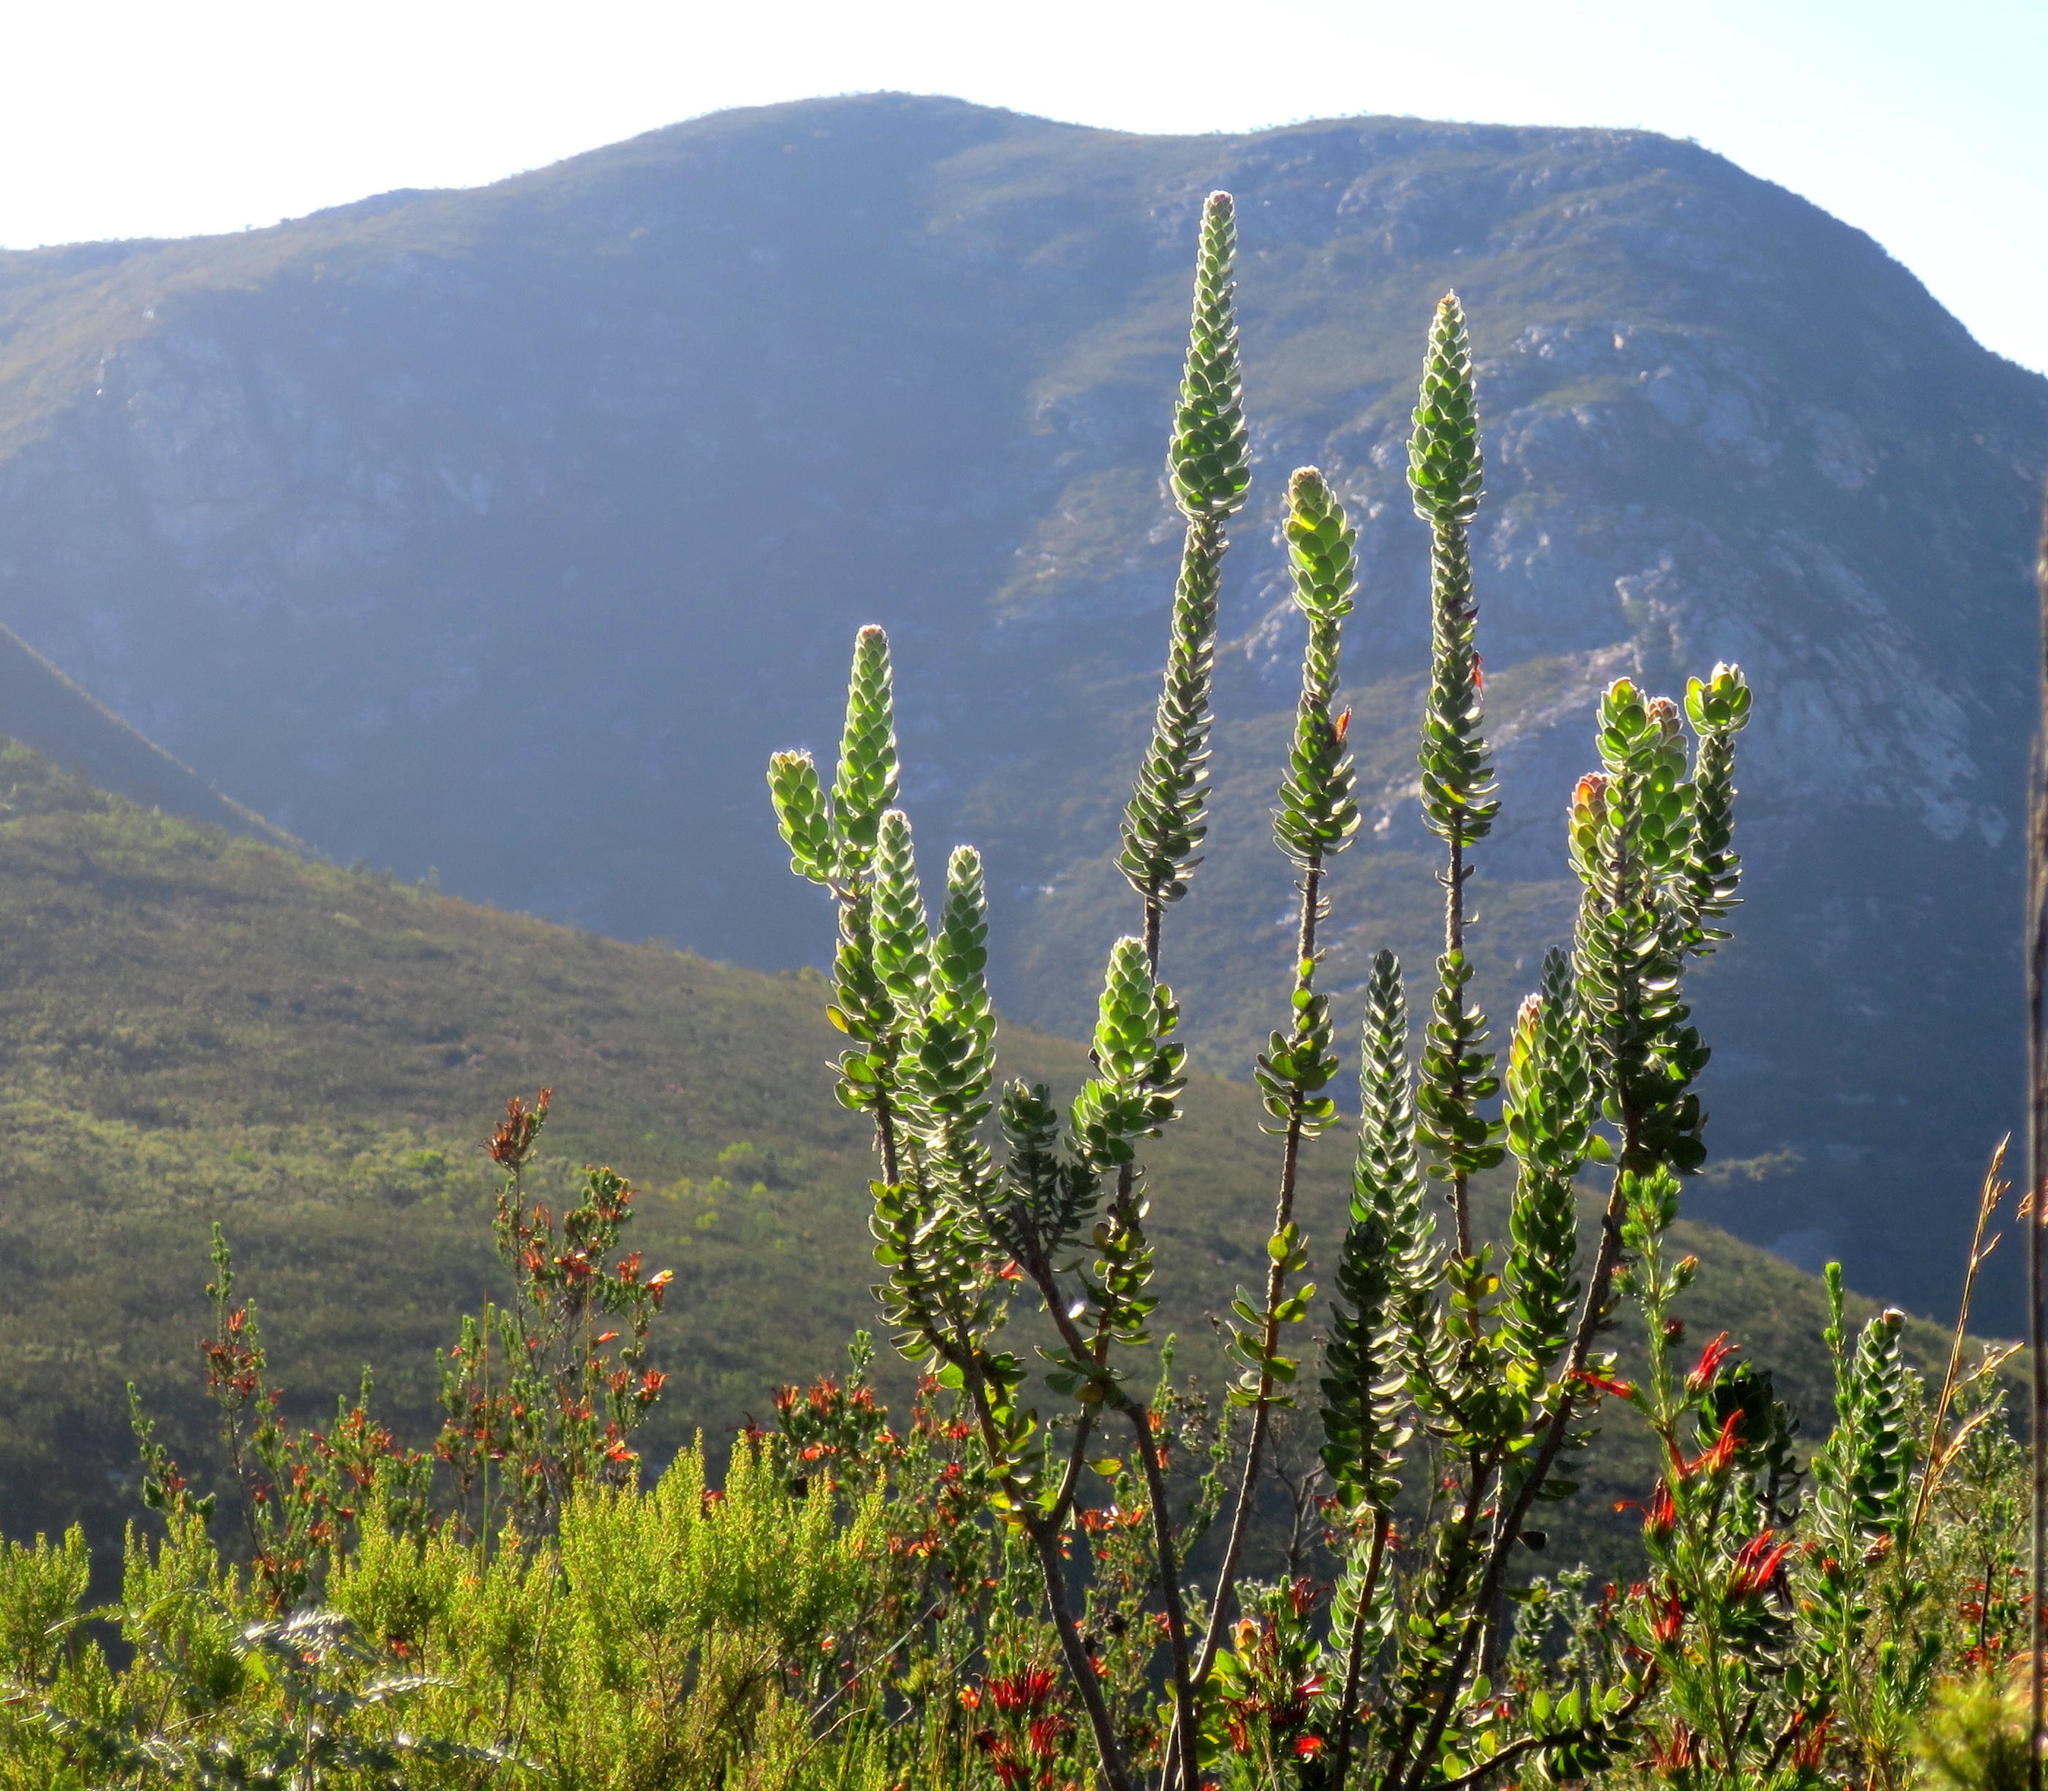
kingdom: Plantae
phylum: Tracheophyta
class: Magnoliopsida
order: Proteales
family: Proteaceae
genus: Mimetes
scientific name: Mimetes pauciflora
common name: Three-flowered pagoda
